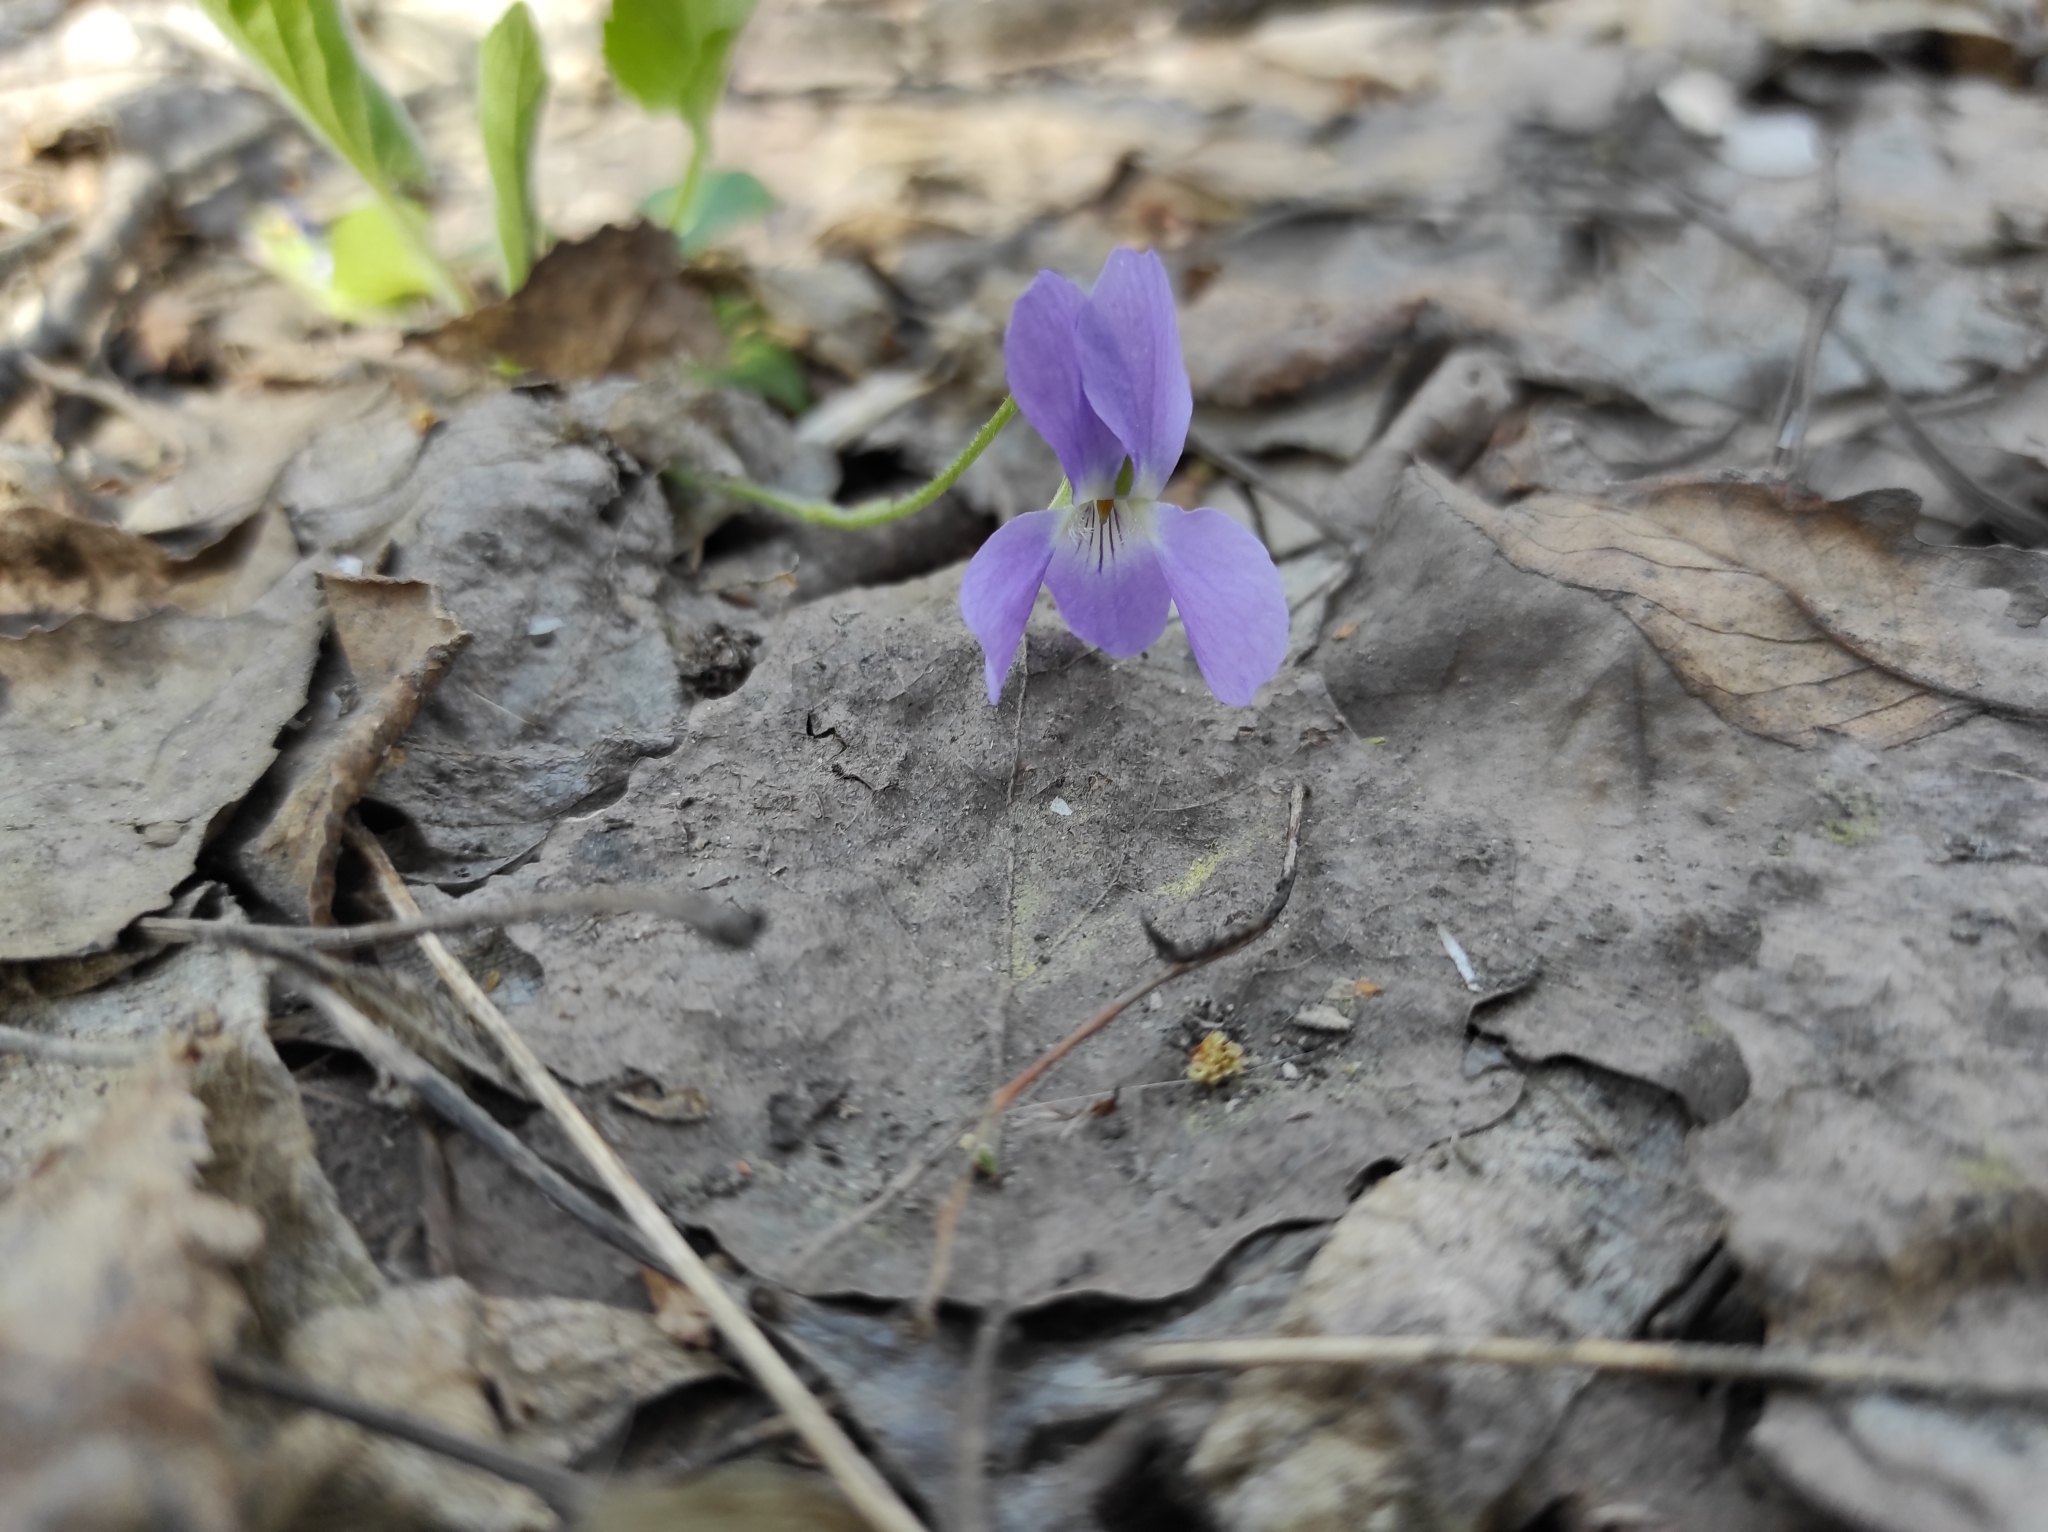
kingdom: Plantae
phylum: Tracheophyta
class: Magnoliopsida
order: Malpighiales
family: Violaceae
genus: Viola
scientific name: Viola hirta
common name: Hairy violet
